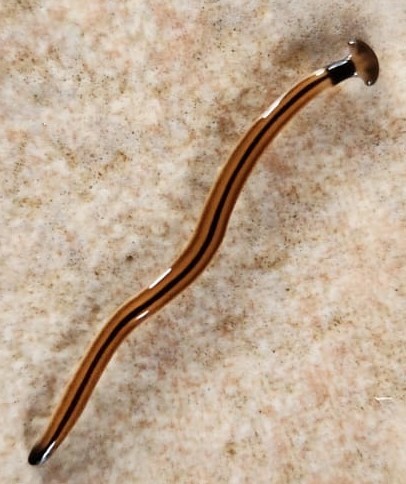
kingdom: Animalia
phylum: Platyhelminthes
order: Tricladida
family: Geoplanidae
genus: Bipalium
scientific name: Bipalium vagum
